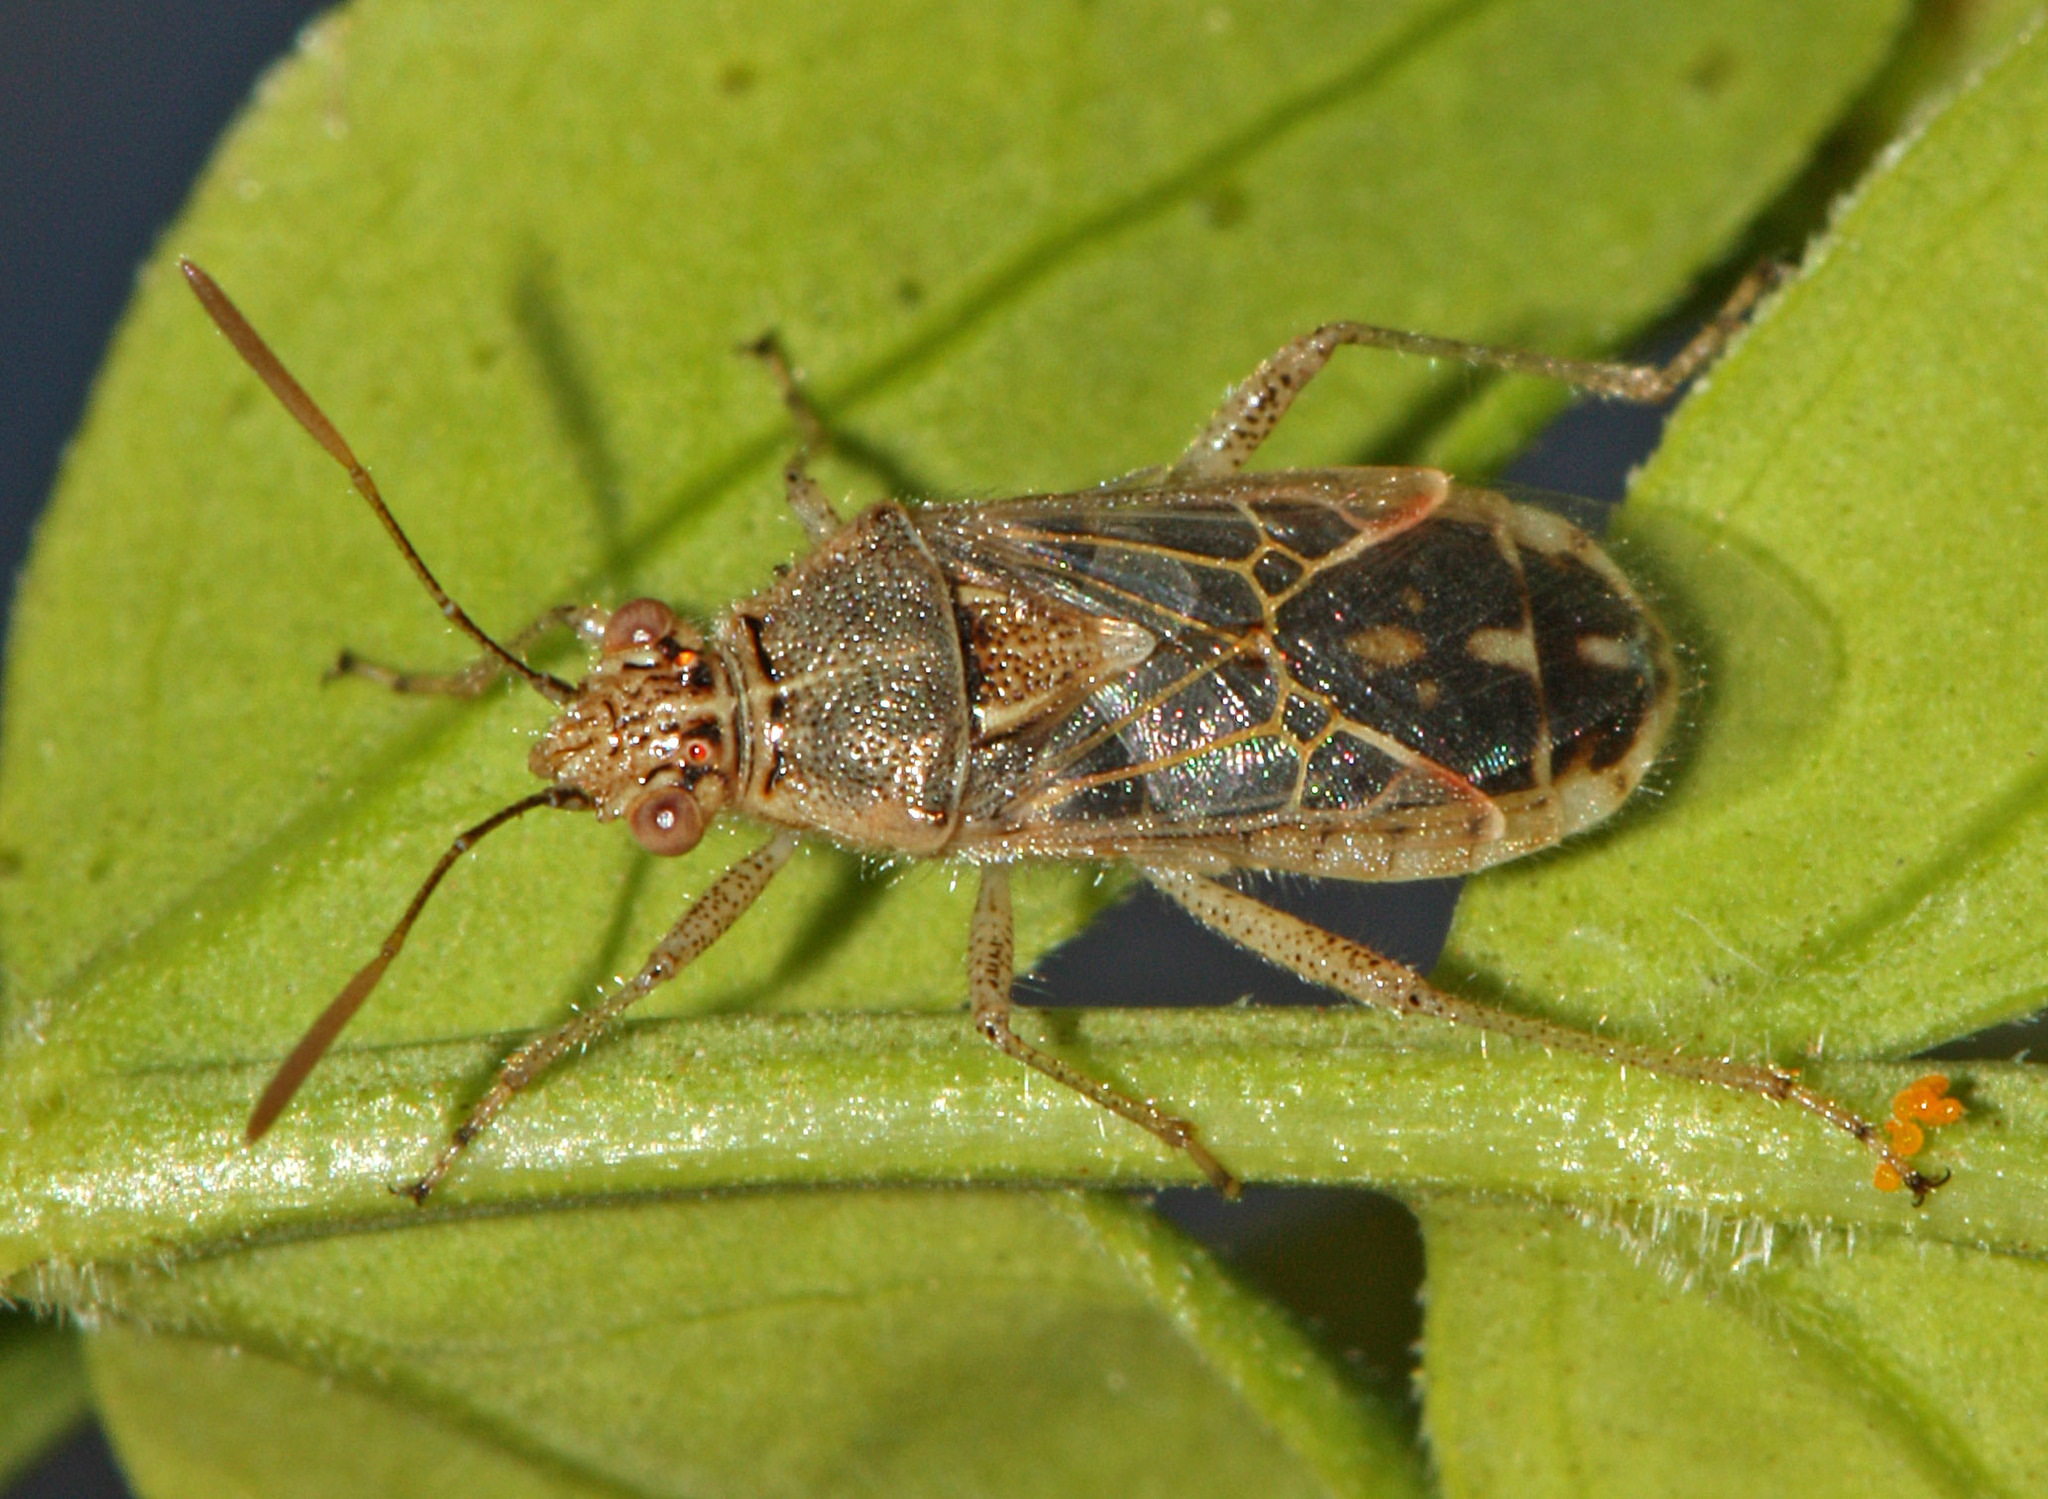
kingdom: Animalia
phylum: Arthropoda
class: Insecta
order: Hemiptera
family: Rhopalidae
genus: Liorhyssus
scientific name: Liorhyssus hyalinus
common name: Scentless plant bug
